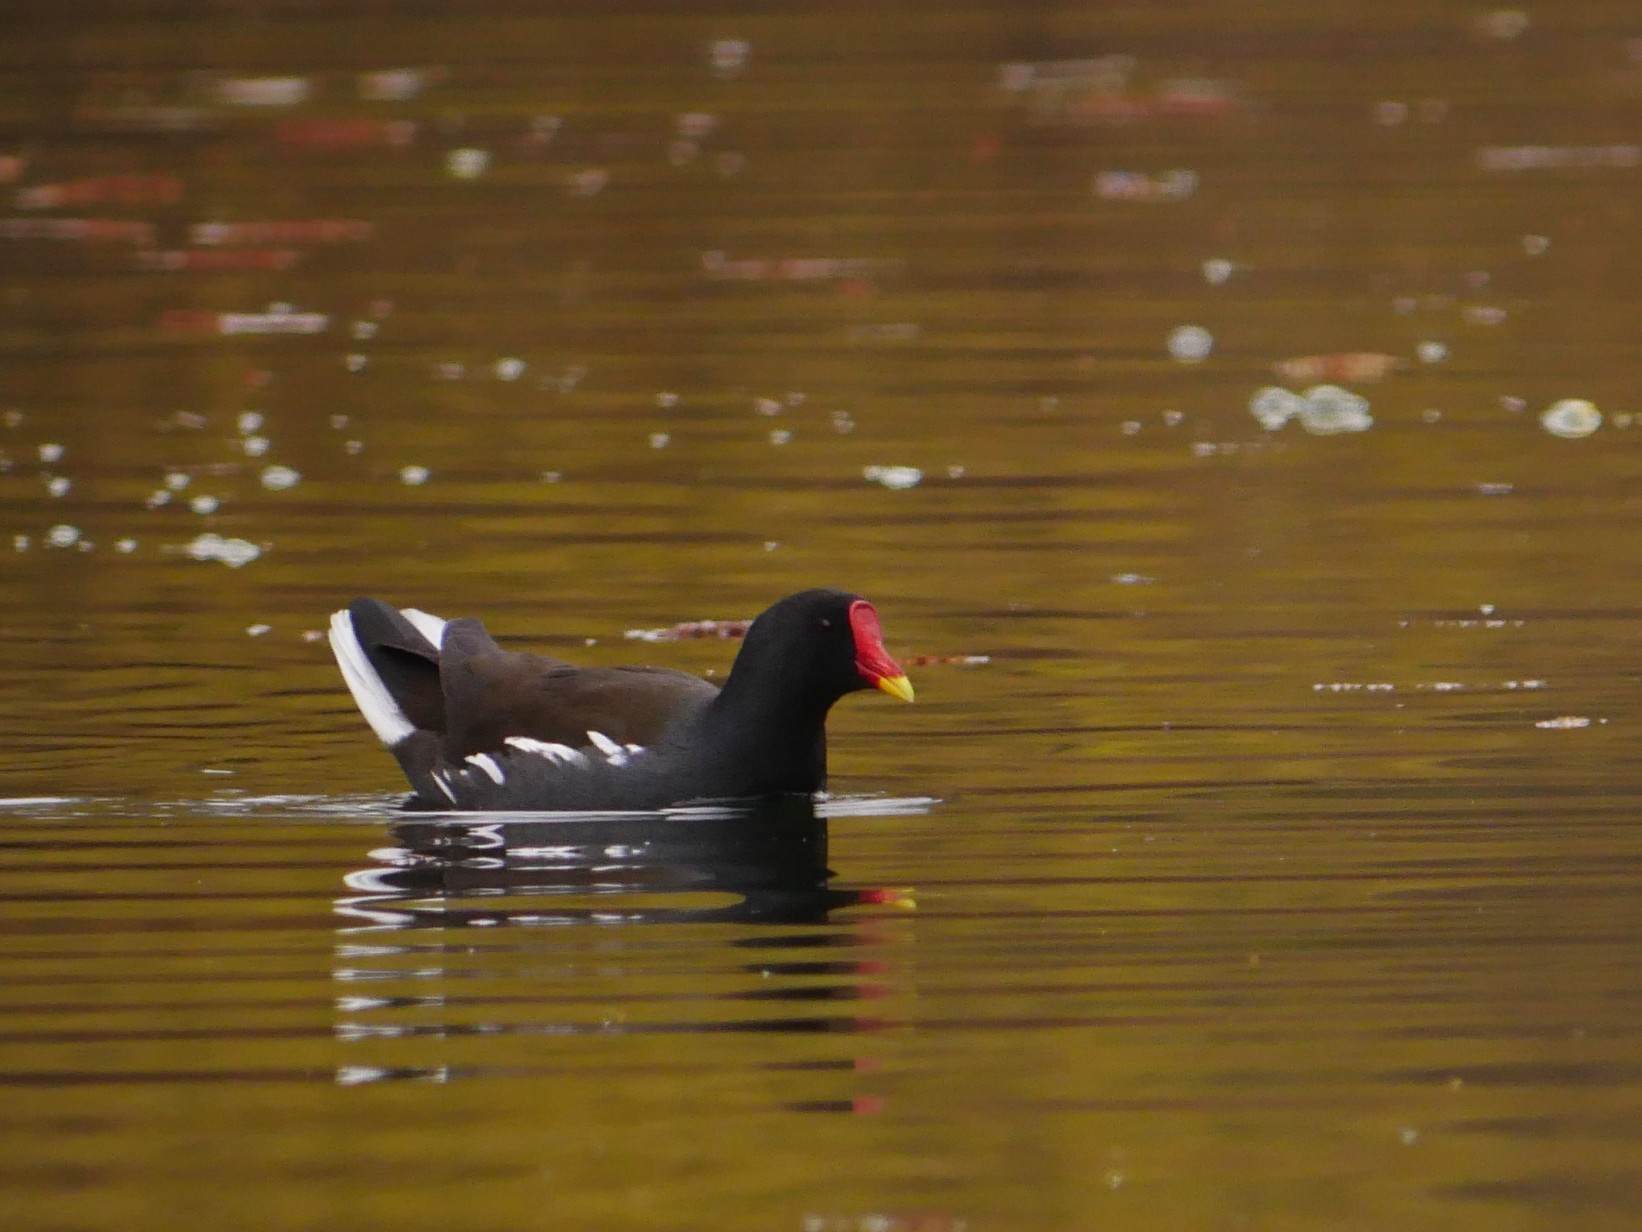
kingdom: Animalia
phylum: Chordata
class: Aves
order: Gruiformes
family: Rallidae
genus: Gallinula
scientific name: Gallinula chloropus
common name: Common moorhen
